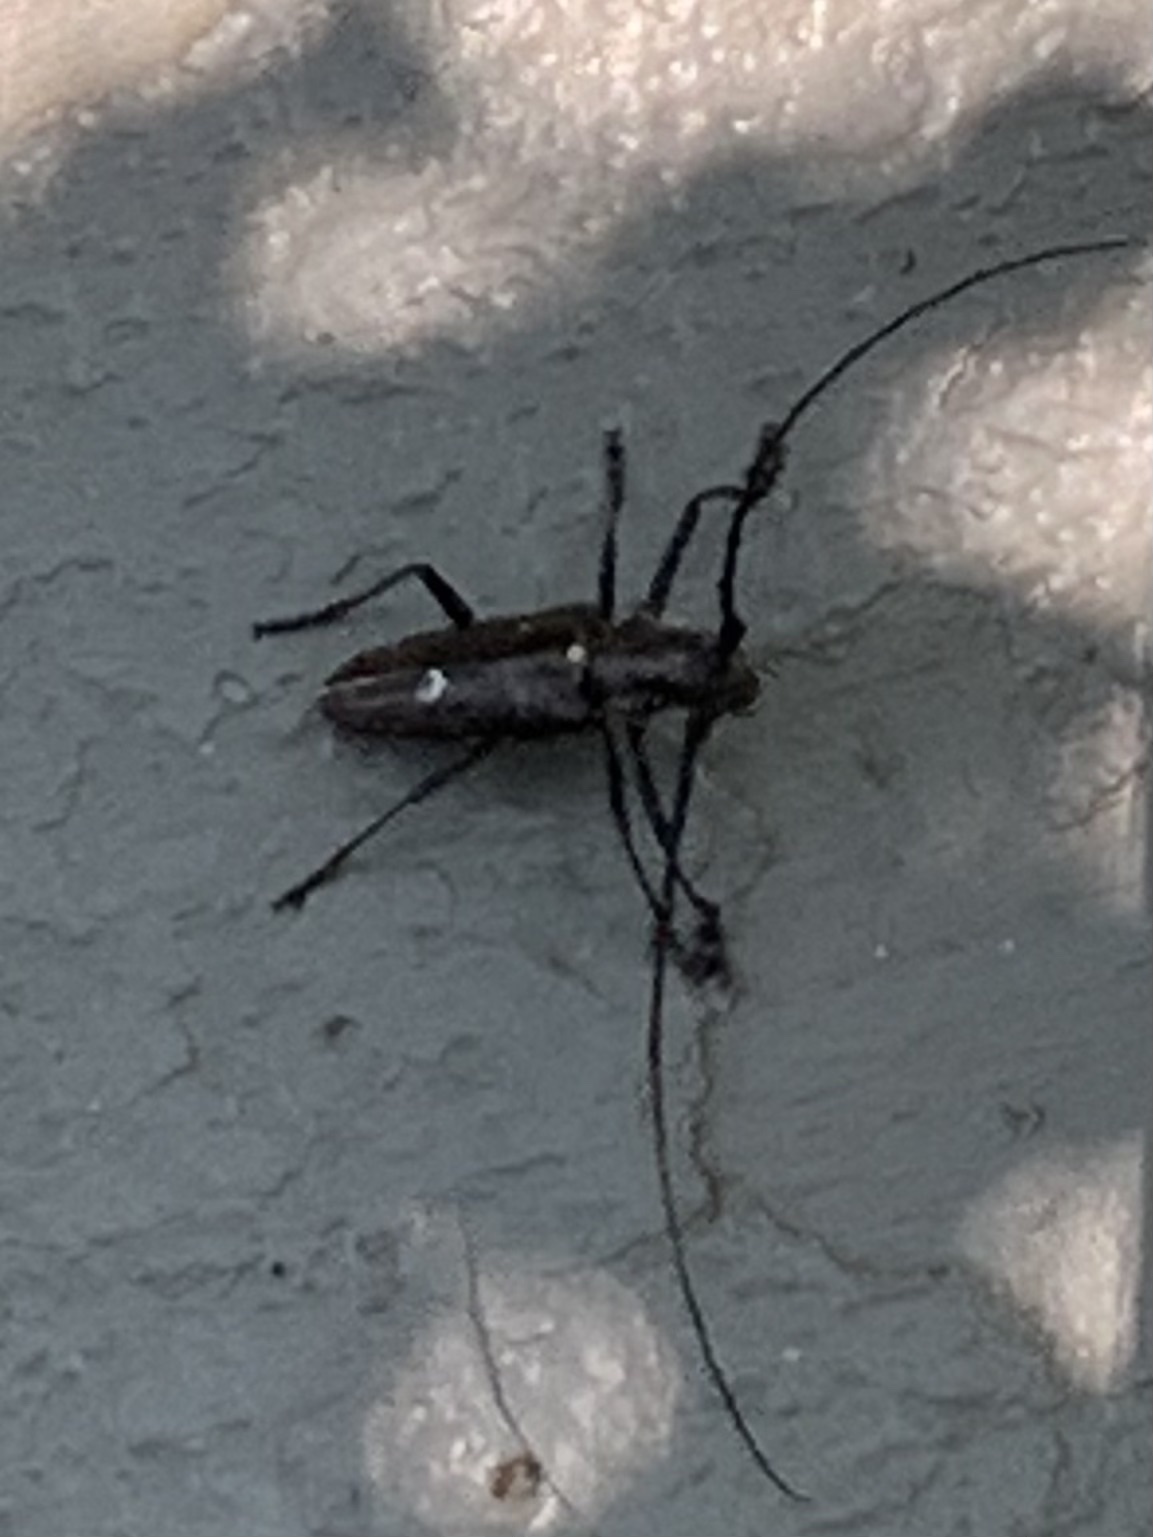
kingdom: Animalia
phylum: Arthropoda
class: Insecta
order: Coleoptera
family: Cerambycidae
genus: Monochamus
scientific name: Monochamus scutellatus
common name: White-spotted sawyer beetle
